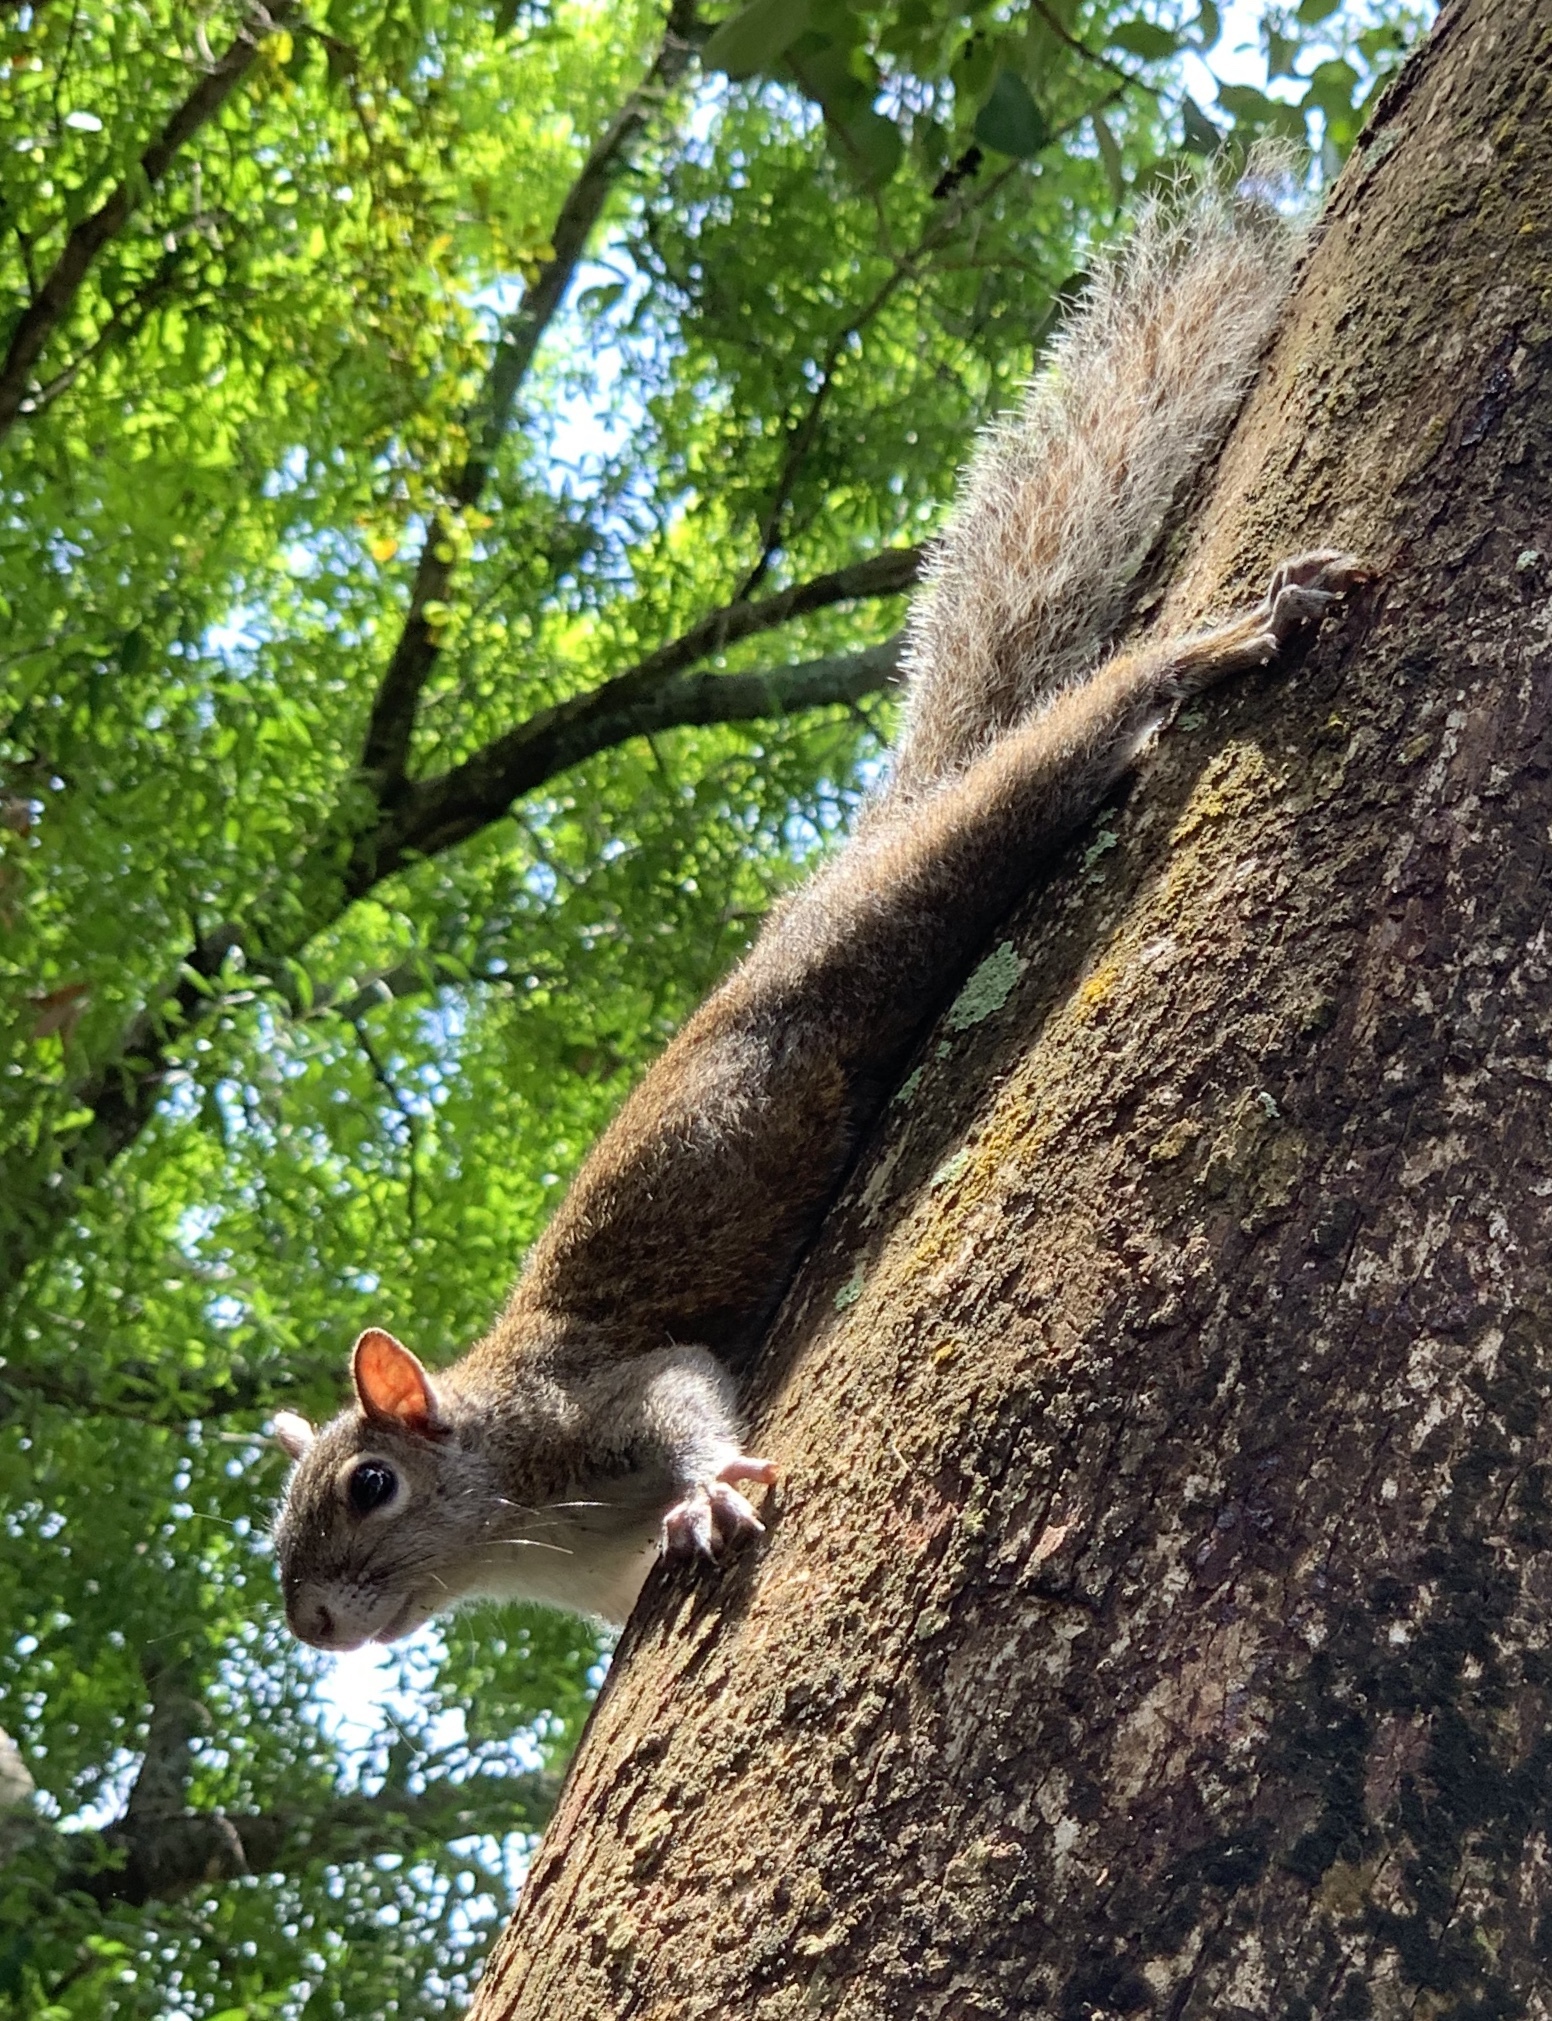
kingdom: Animalia
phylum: Chordata
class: Mammalia
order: Rodentia
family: Sciuridae
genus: Sciurus
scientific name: Sciurus carolinensis
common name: Eastern gray squirrel
